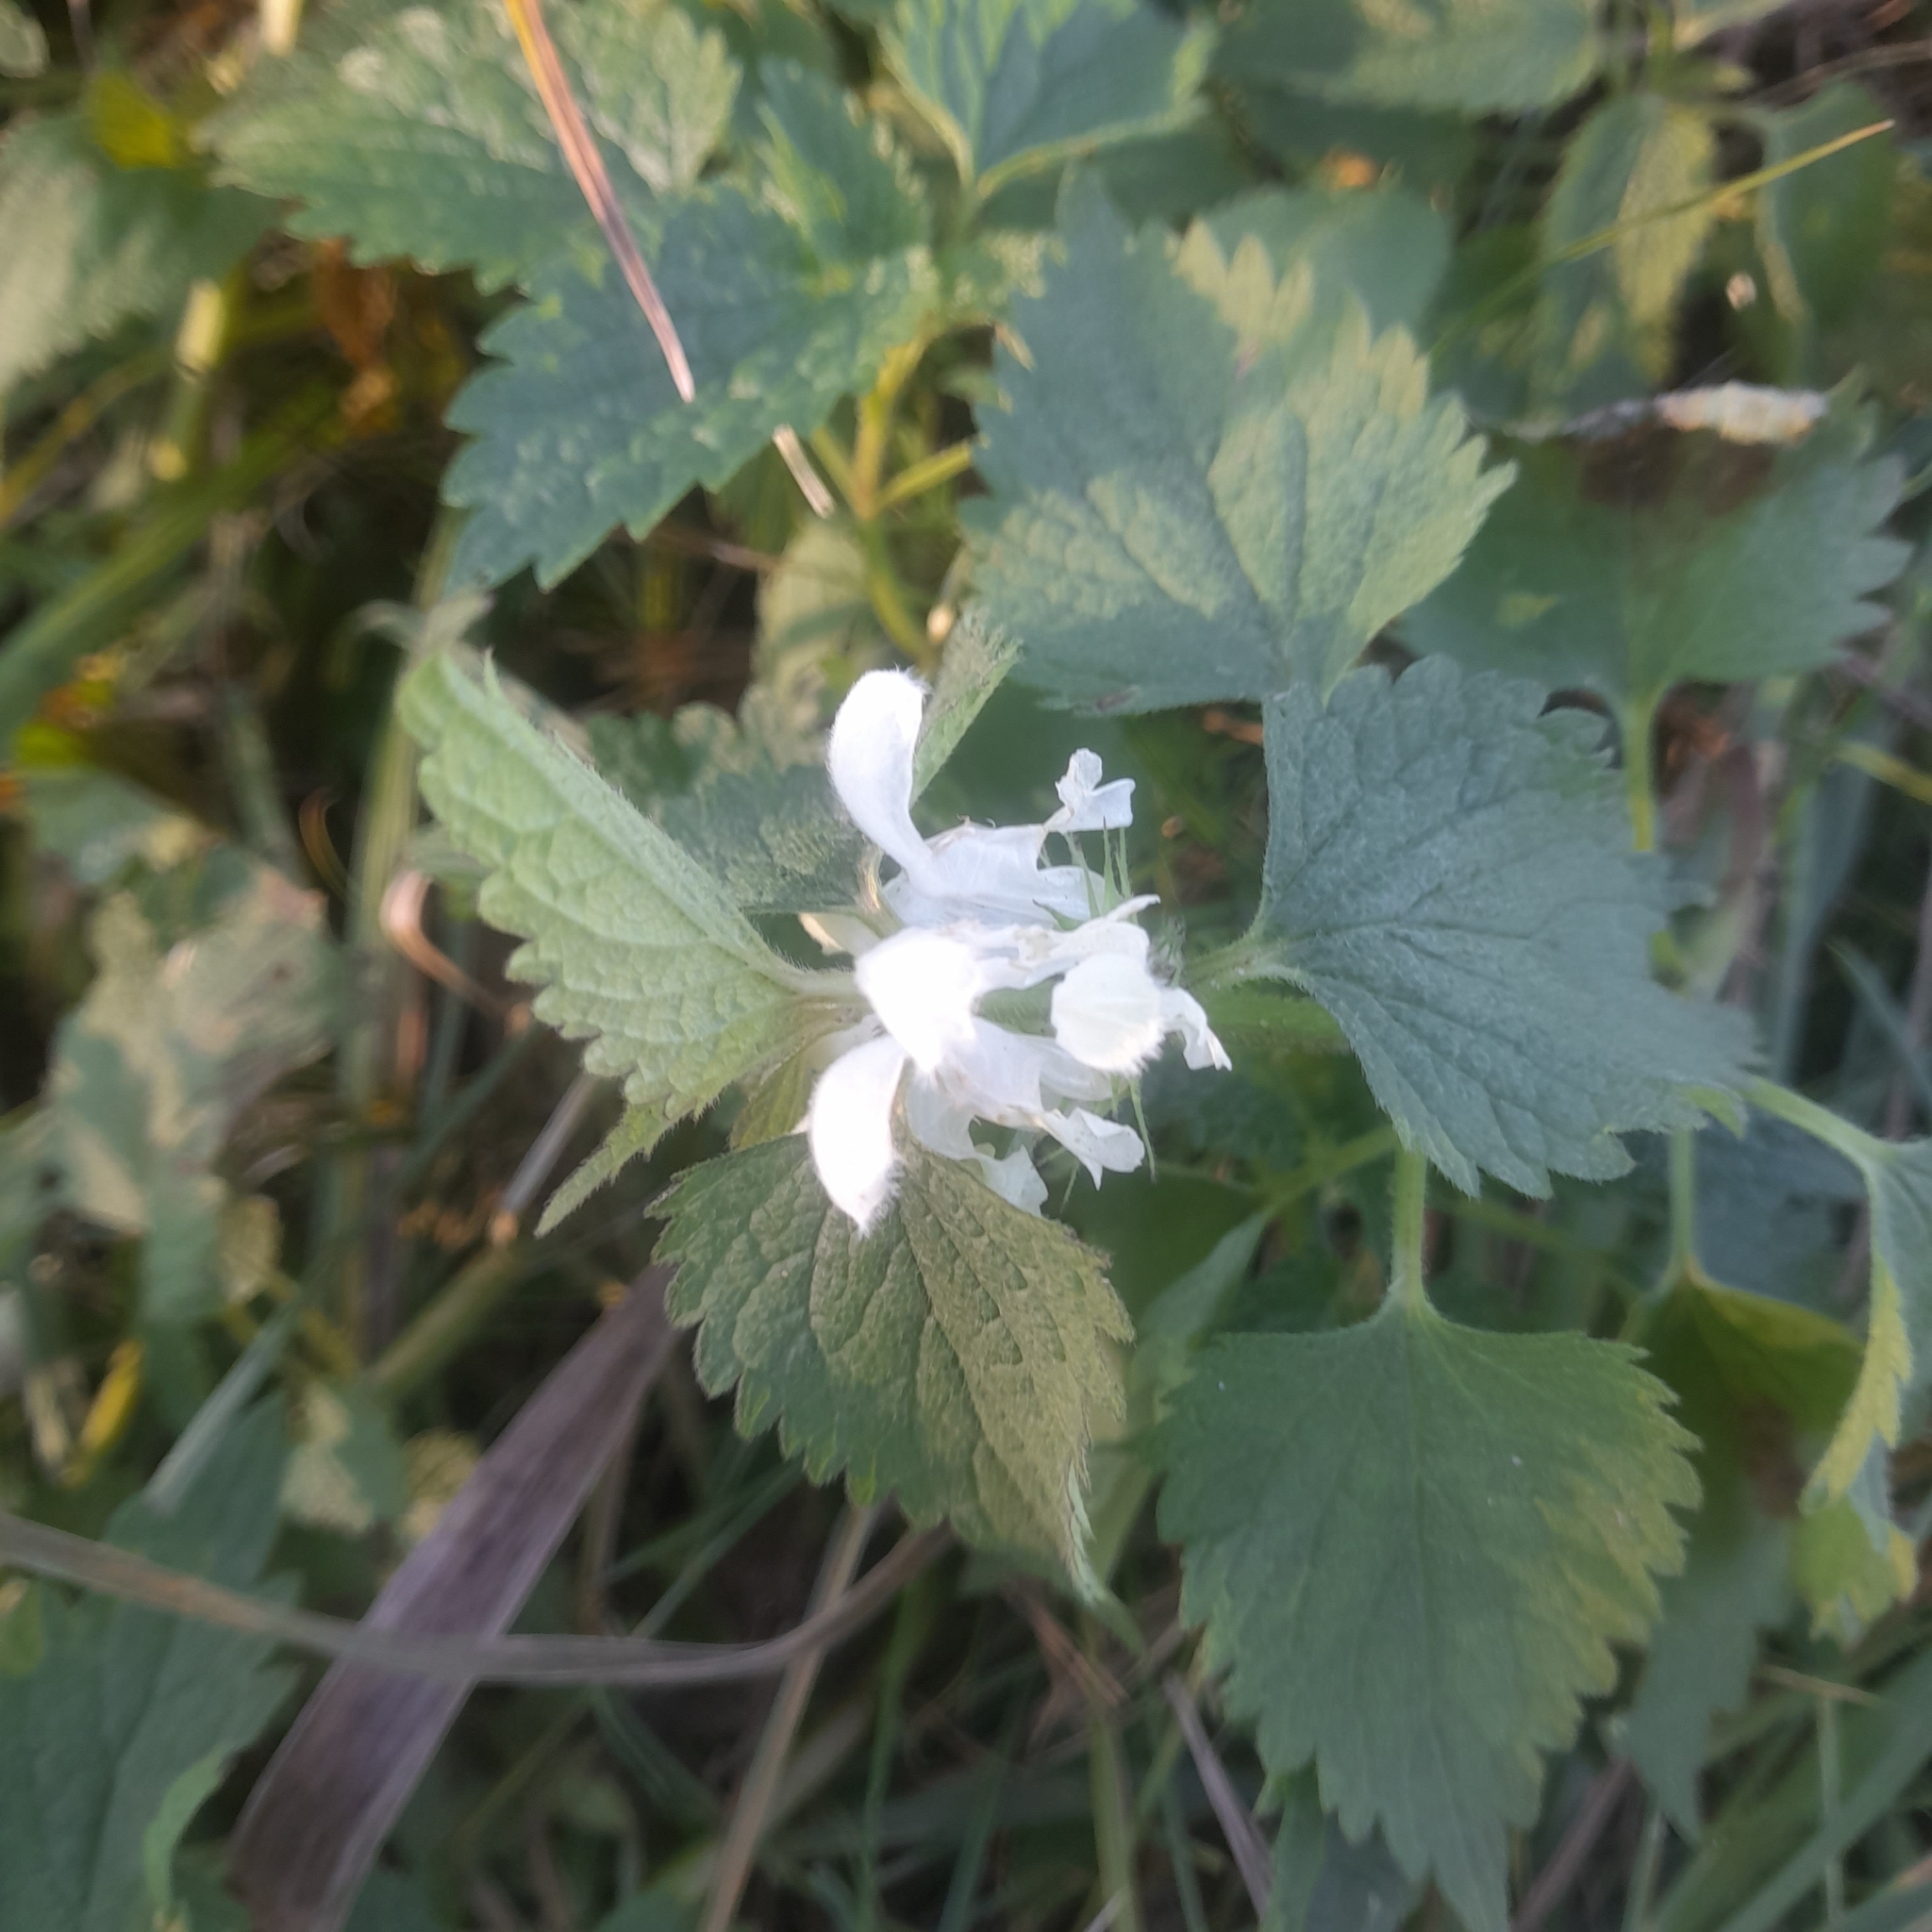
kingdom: Plantae
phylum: Tracheophyta
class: Magnoliopsida
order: Lamiales
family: Lamiaceae
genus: Lamium
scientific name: Lamium album
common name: White dead-nettle
